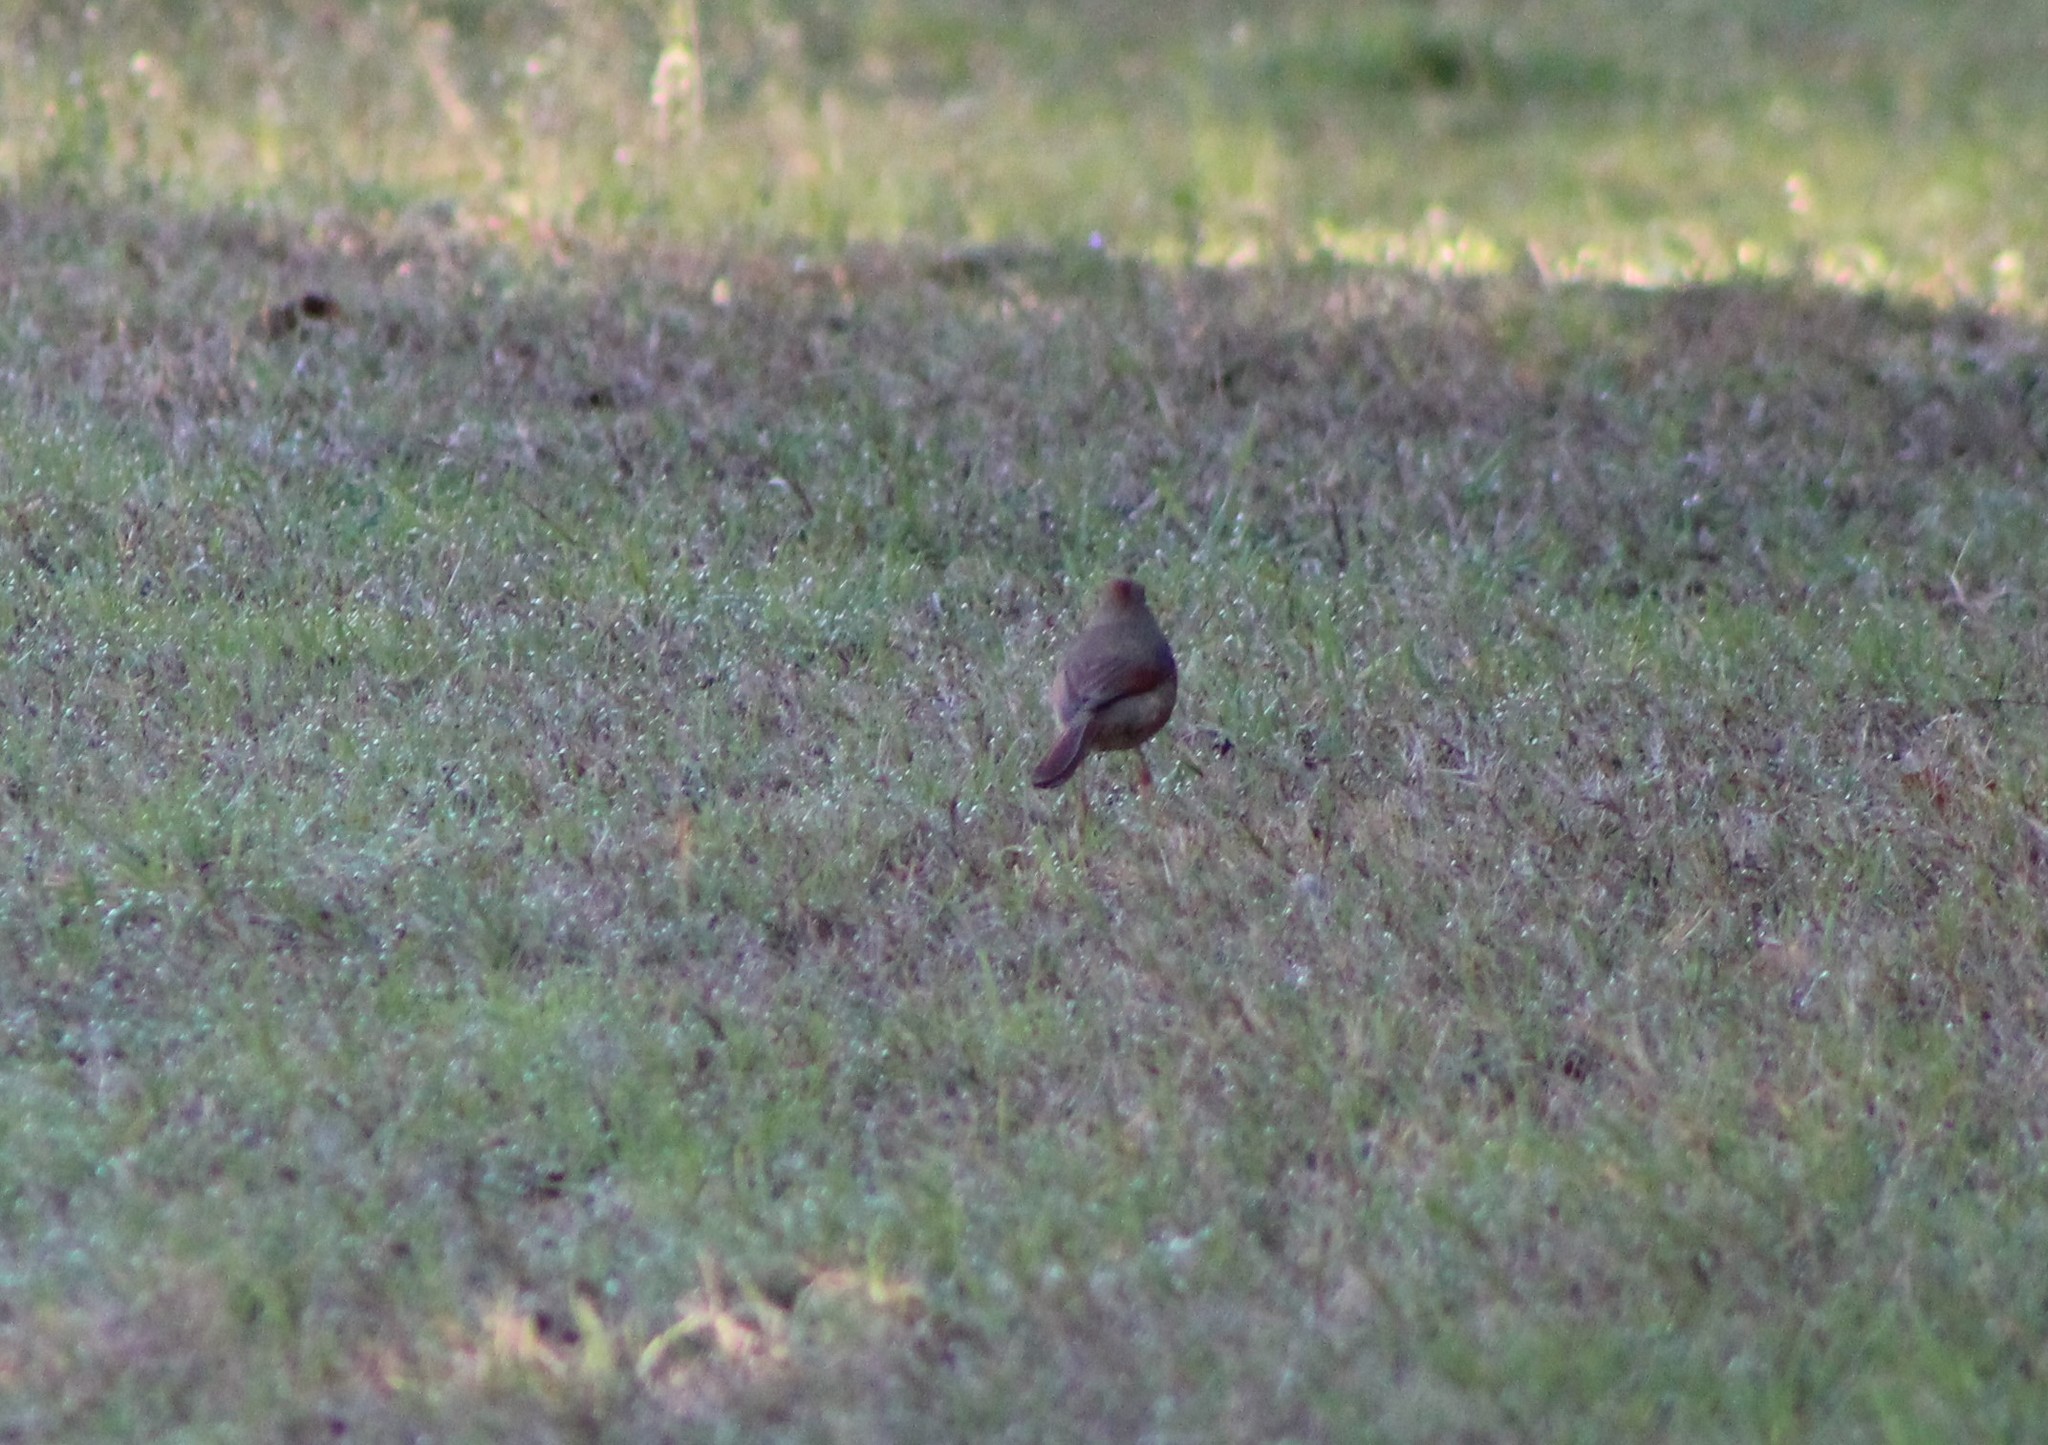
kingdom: Animalia
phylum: Chordata
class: Aves
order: Passeriformes
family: Cardinalidae
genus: Cardinalis
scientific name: Cardinalis cardinalis
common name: Northern cardinal
